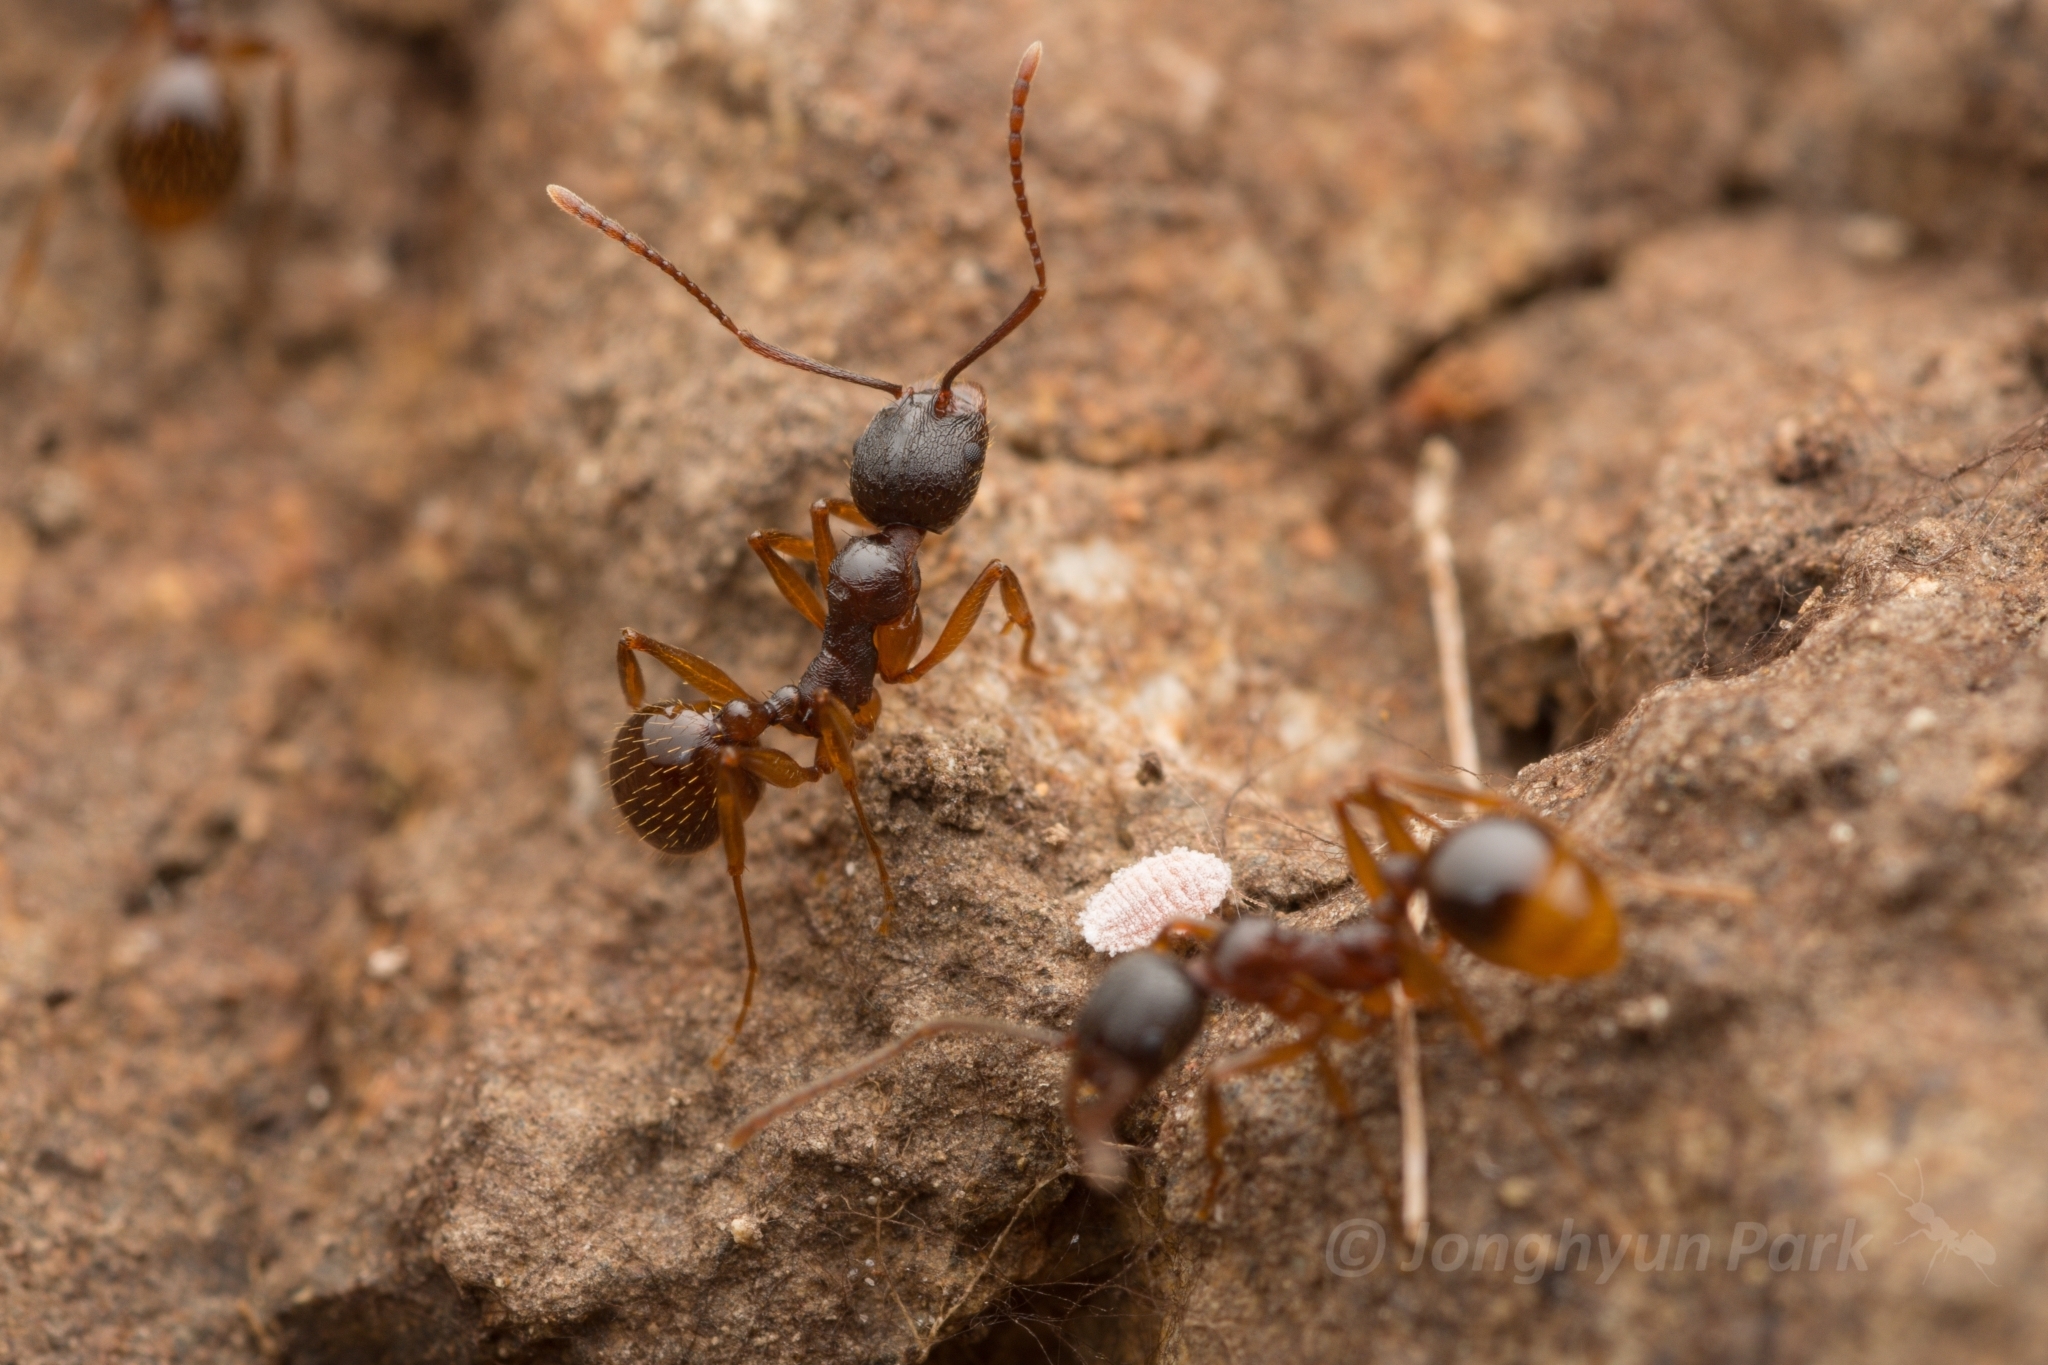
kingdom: Animalia
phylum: Arthropoda
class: Insecta
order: Hymenoptera
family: Formicidae
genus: Aphaenogaster
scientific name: Aphaenogaster japonica
